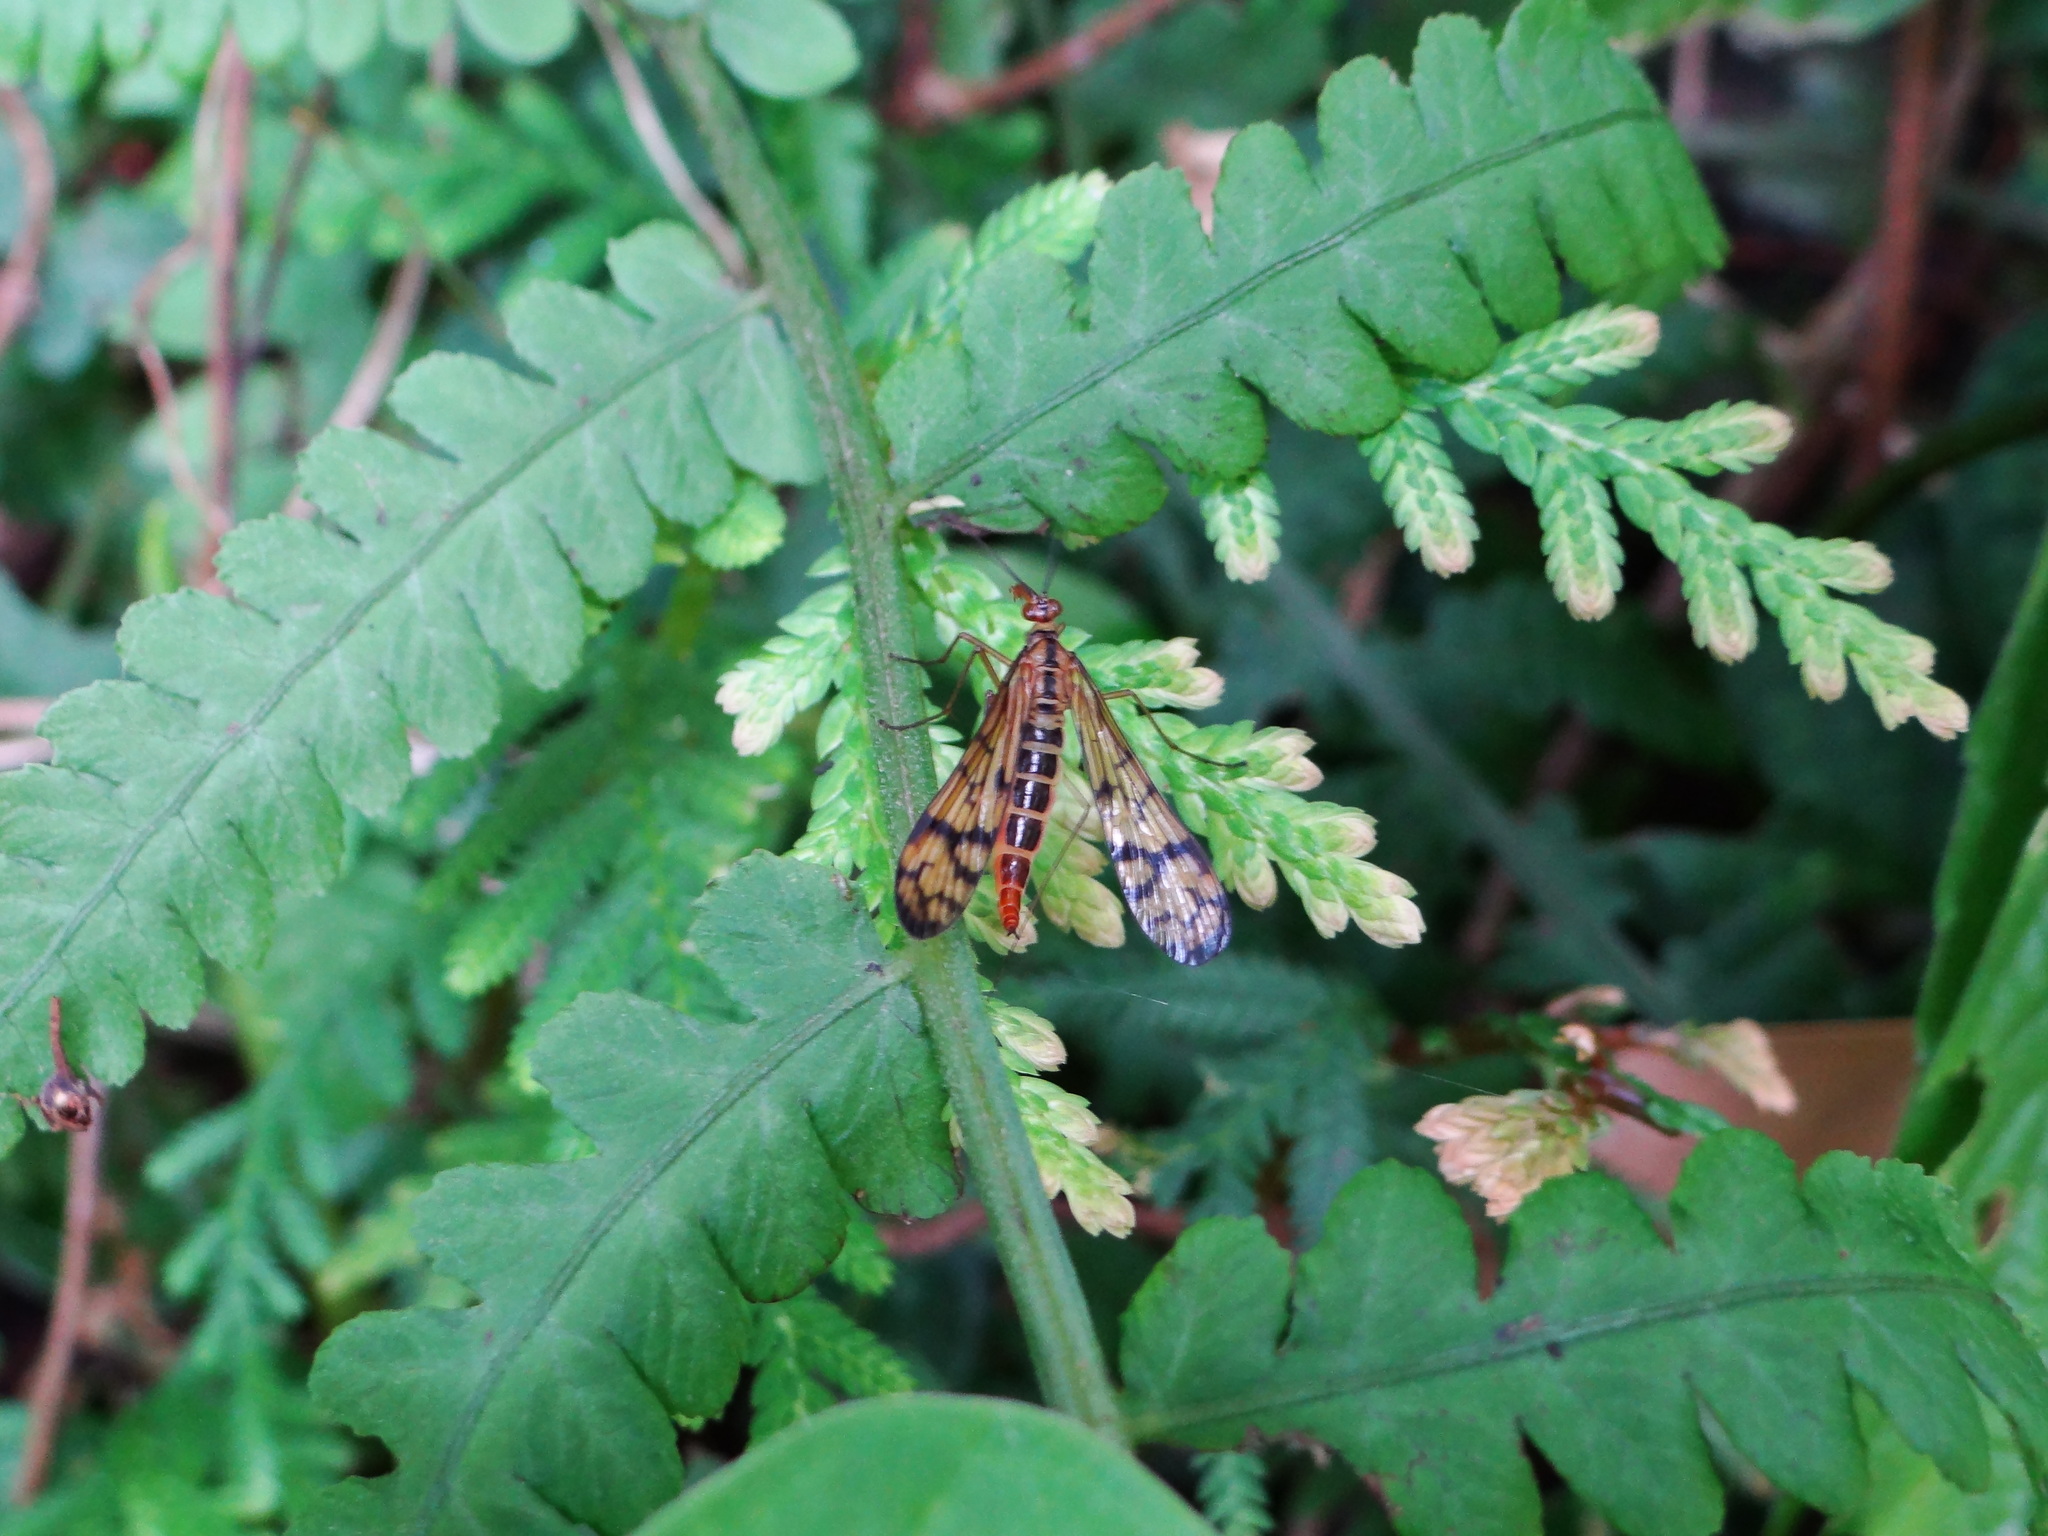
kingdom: Animalia
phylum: Arthropoda
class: Insecta
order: Mecoptera
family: Panorpidae
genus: Neopanorpa
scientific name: Neopanorpa gradana
